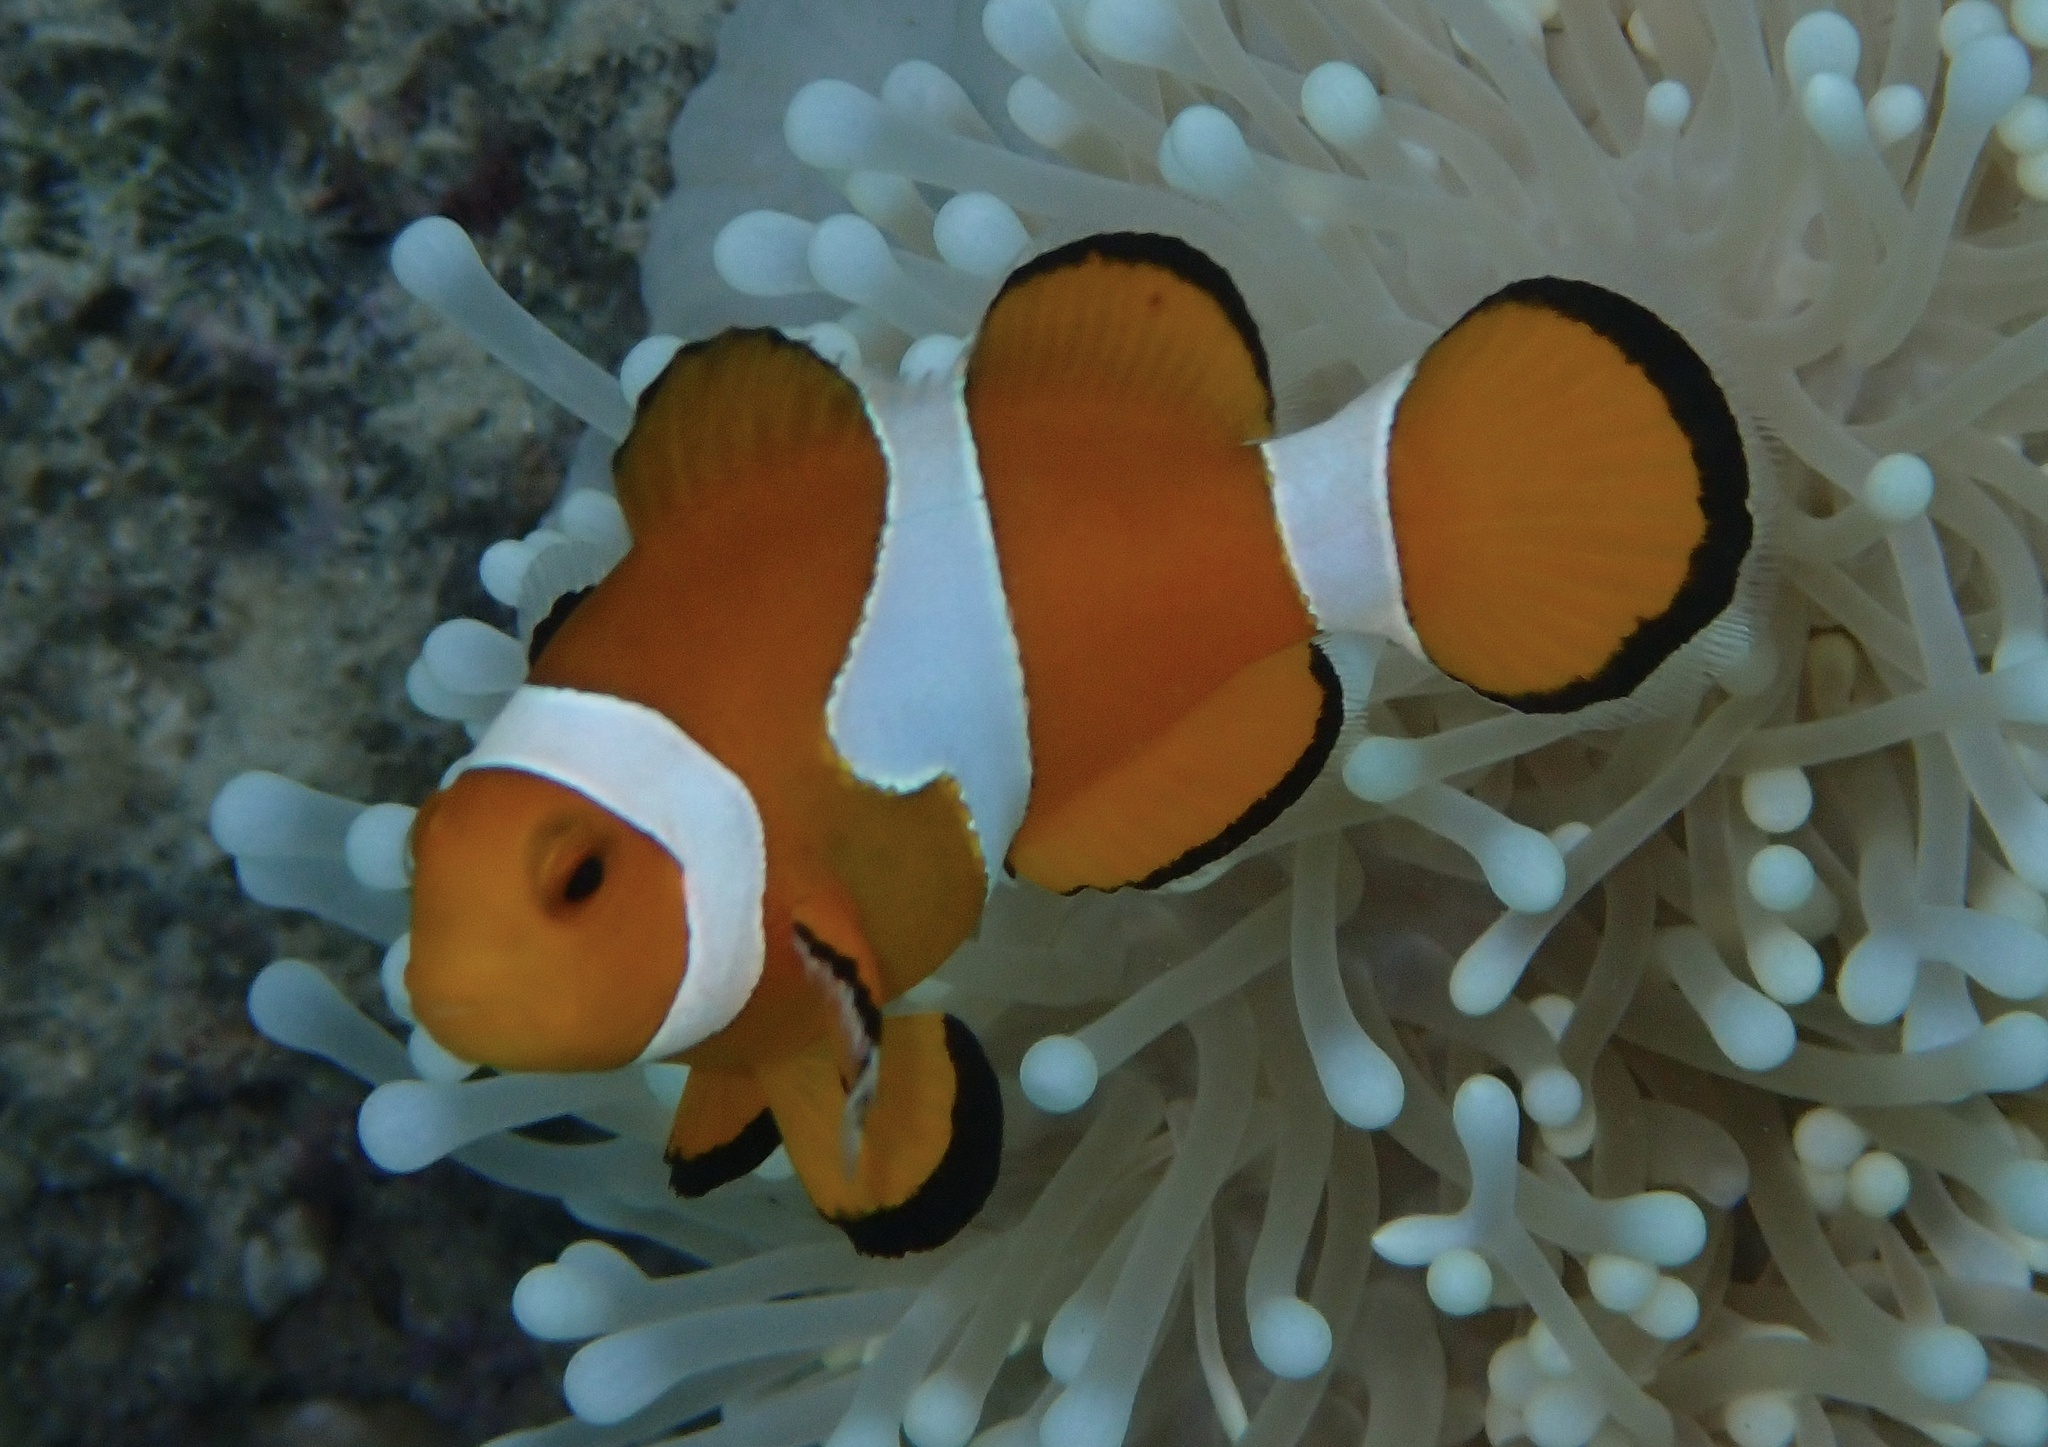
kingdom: Animalia
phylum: Chordata
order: Perciformes
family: Pomacentridae
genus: Amphiprion
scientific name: Amphiprion ocellaris
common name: Clown anemonefish
